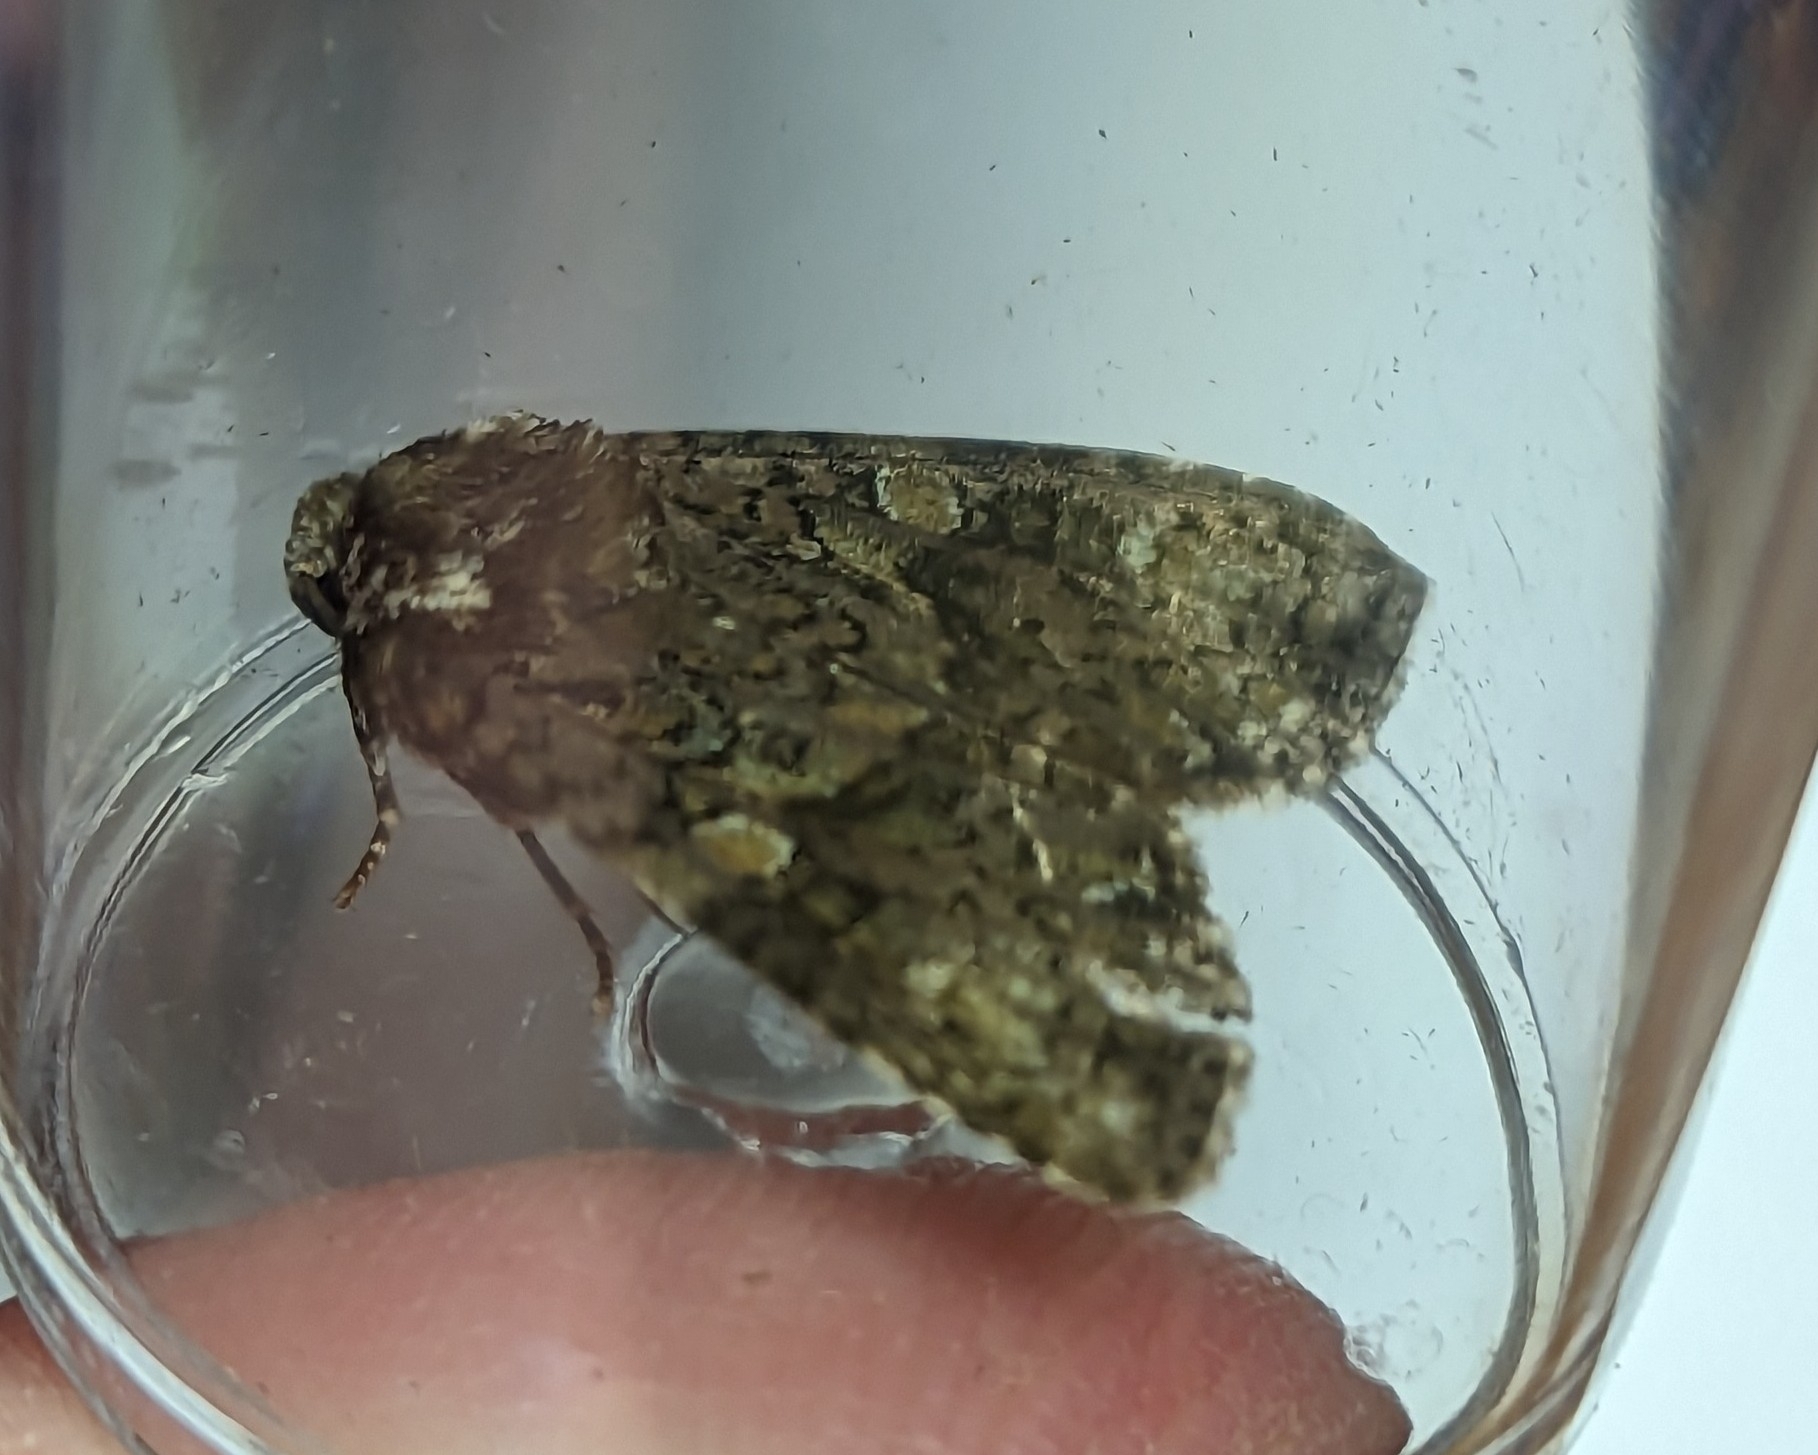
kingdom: Animalia
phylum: Arthropoda
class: Insecta
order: Lepidoptera
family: Noctuidae
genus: Craniophora
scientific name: Craniophora ligustri
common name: Coronet
